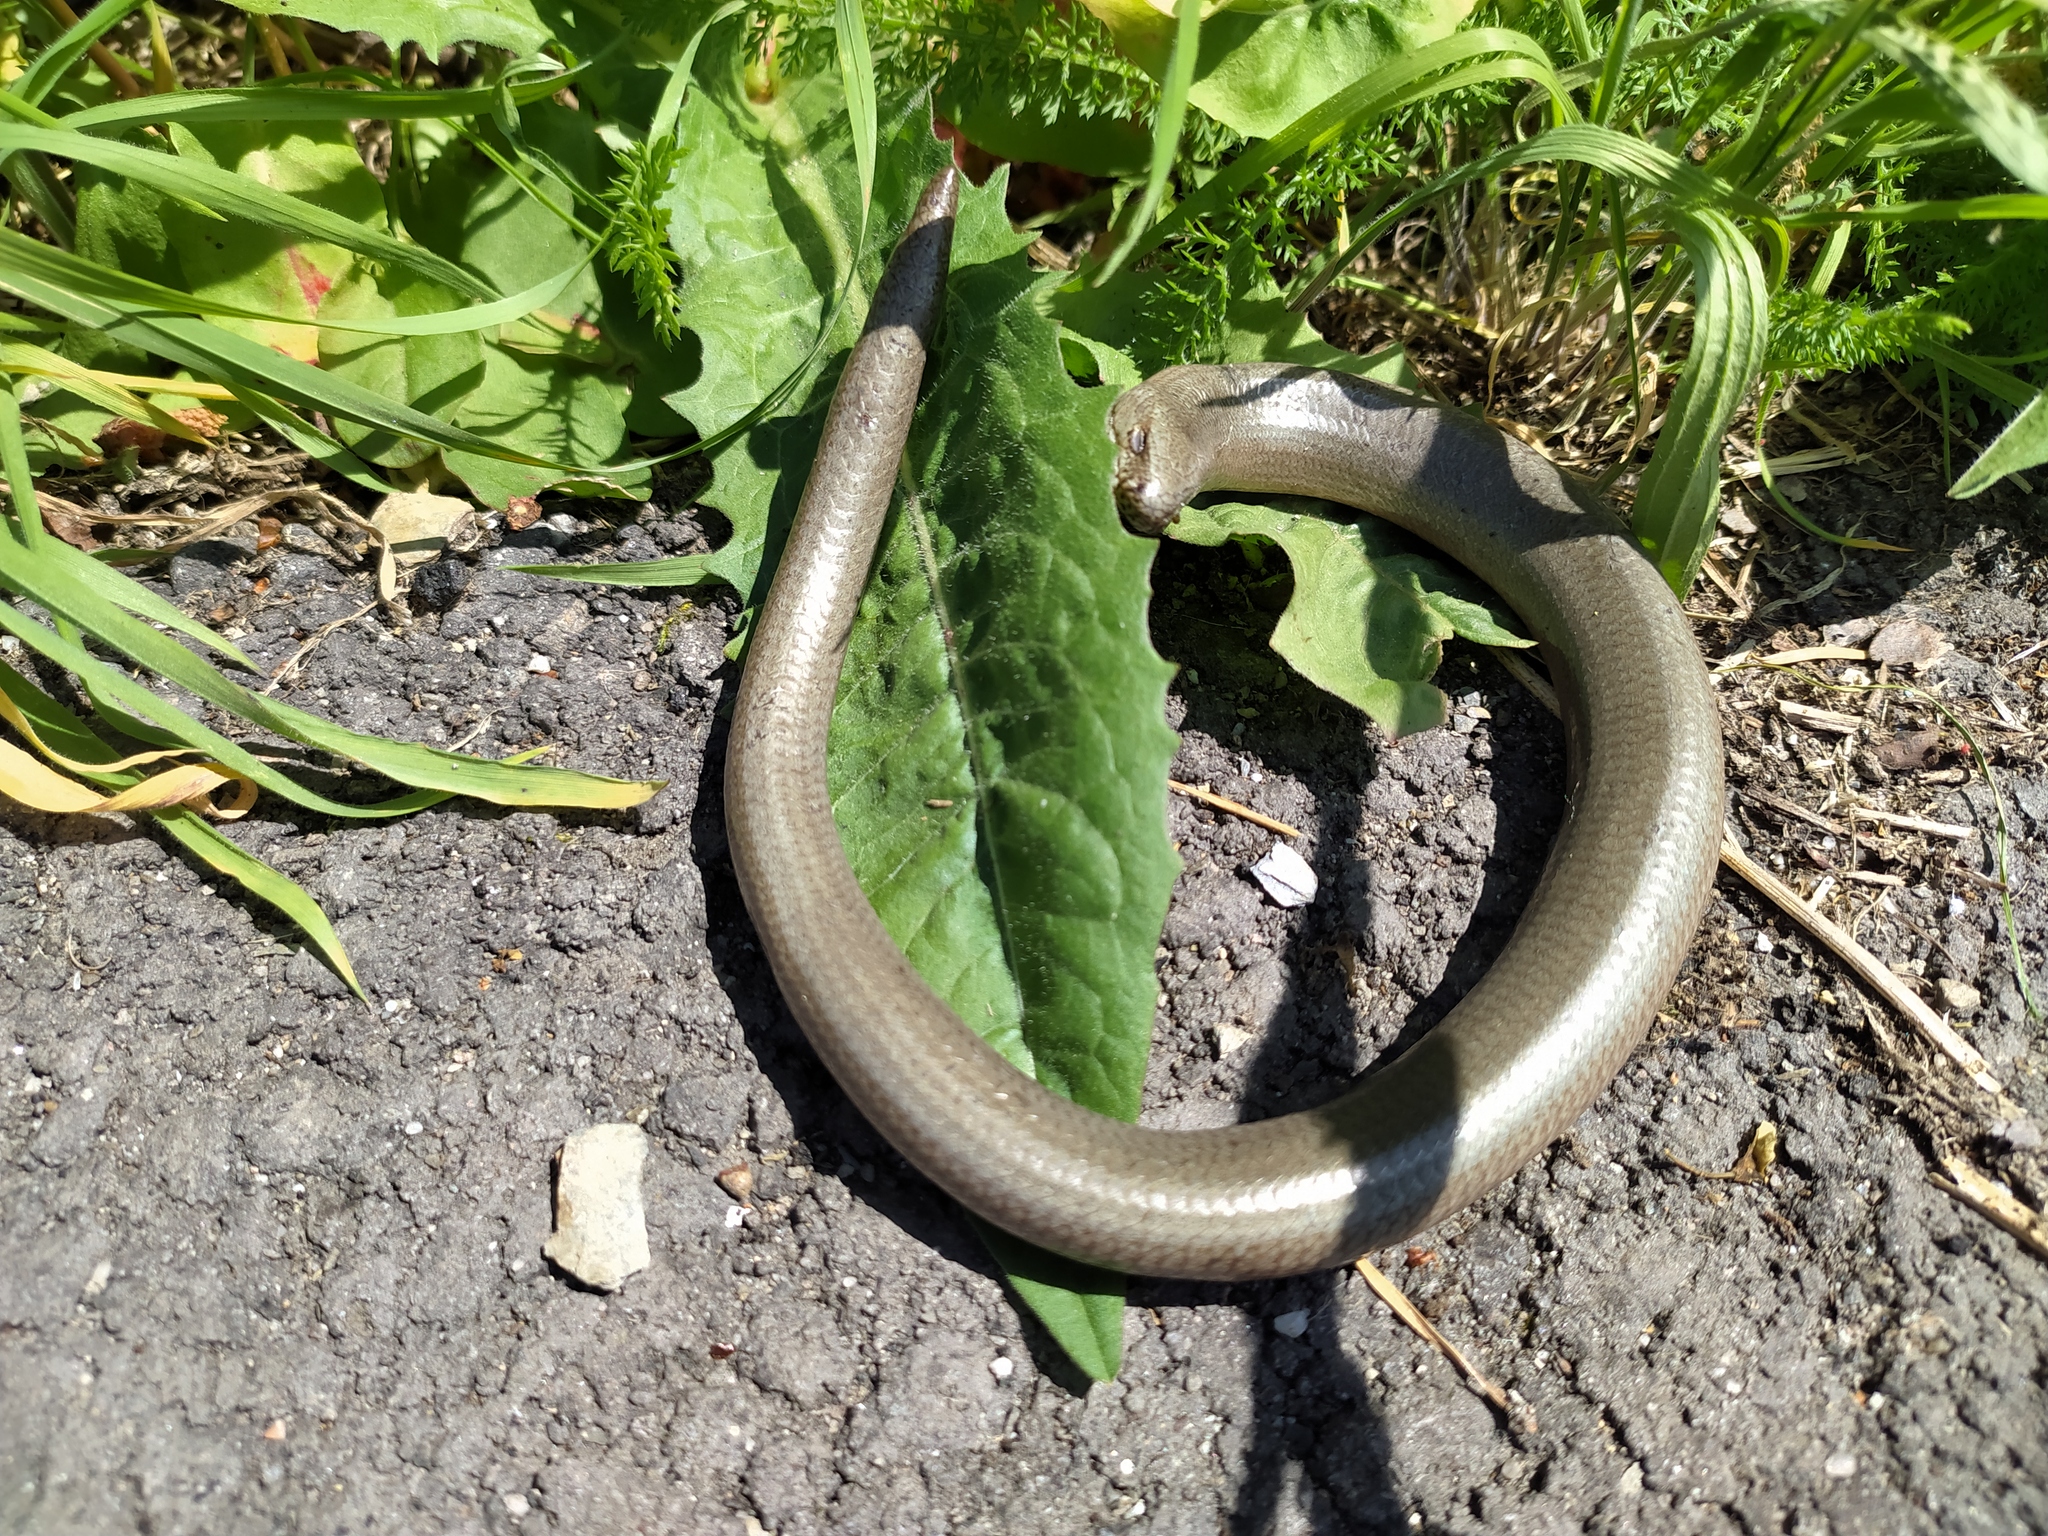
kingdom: Animalia
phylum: Chordata
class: Squamata
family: Anguidae
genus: Anguis
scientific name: Anguis fragilis
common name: Slow worm
